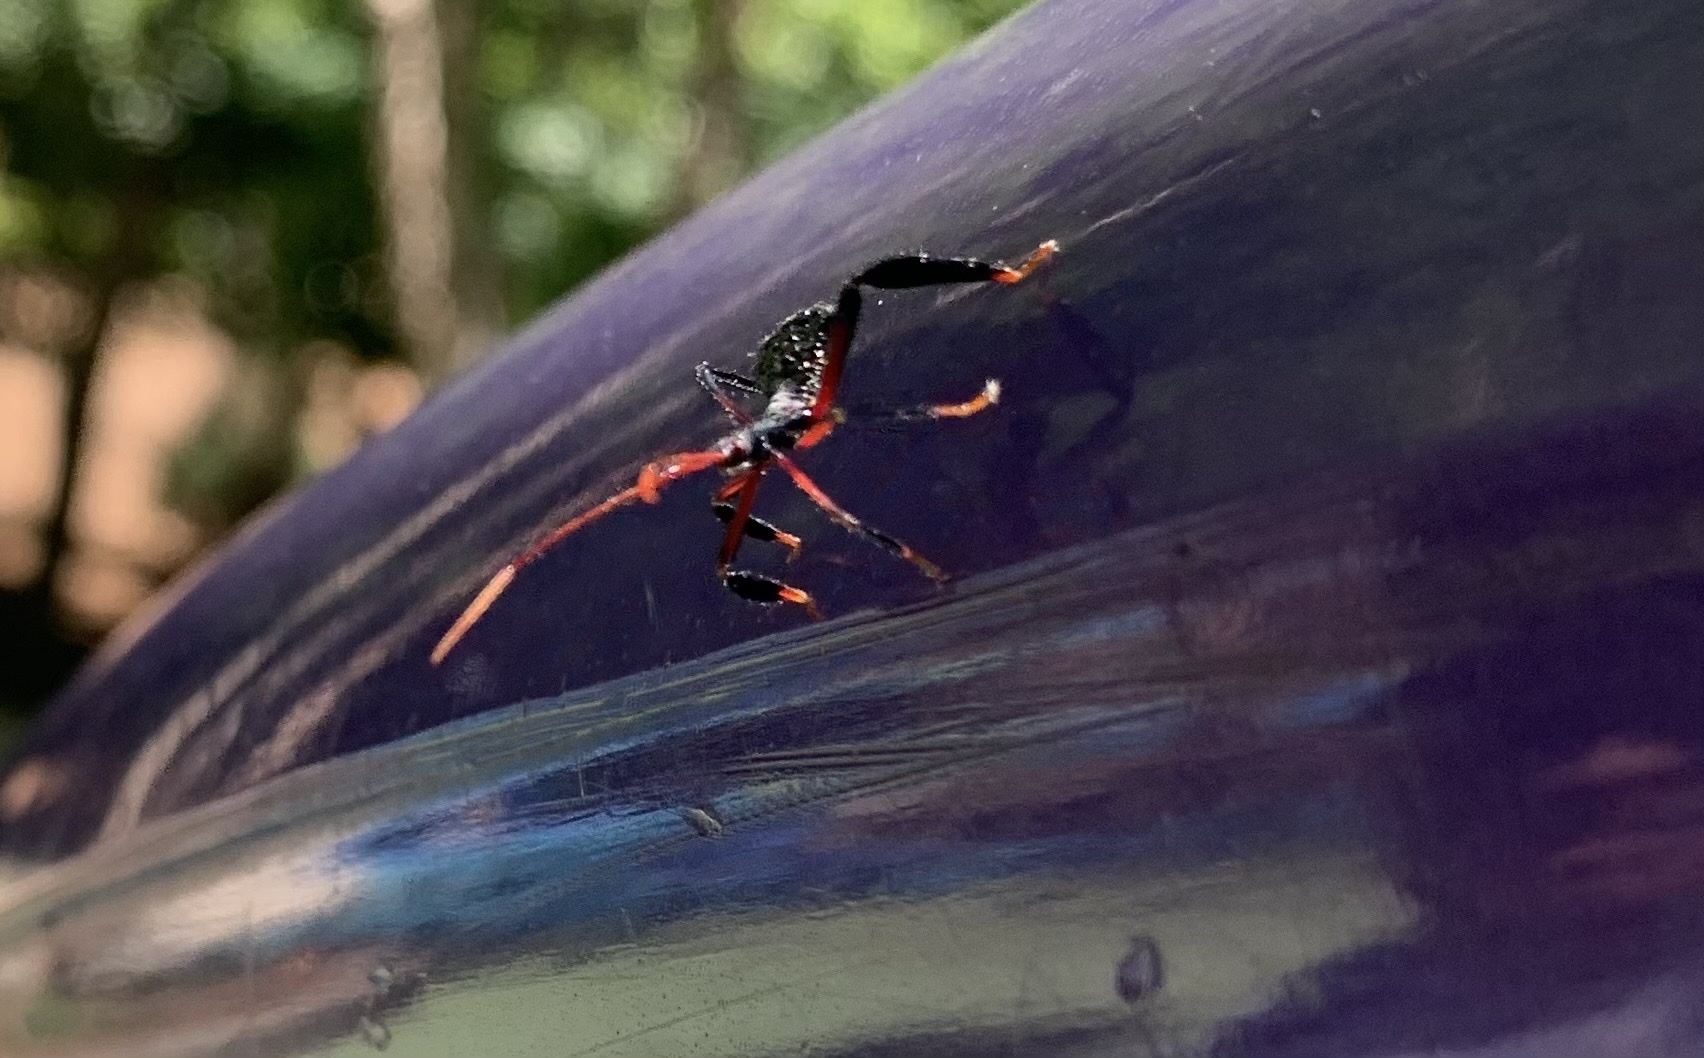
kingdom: Animalia
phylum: Arthropoda
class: Insecta
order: Hemiptera
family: Reduviidae
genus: Arilus
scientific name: Arilus cristatus
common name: North american wheel bug
